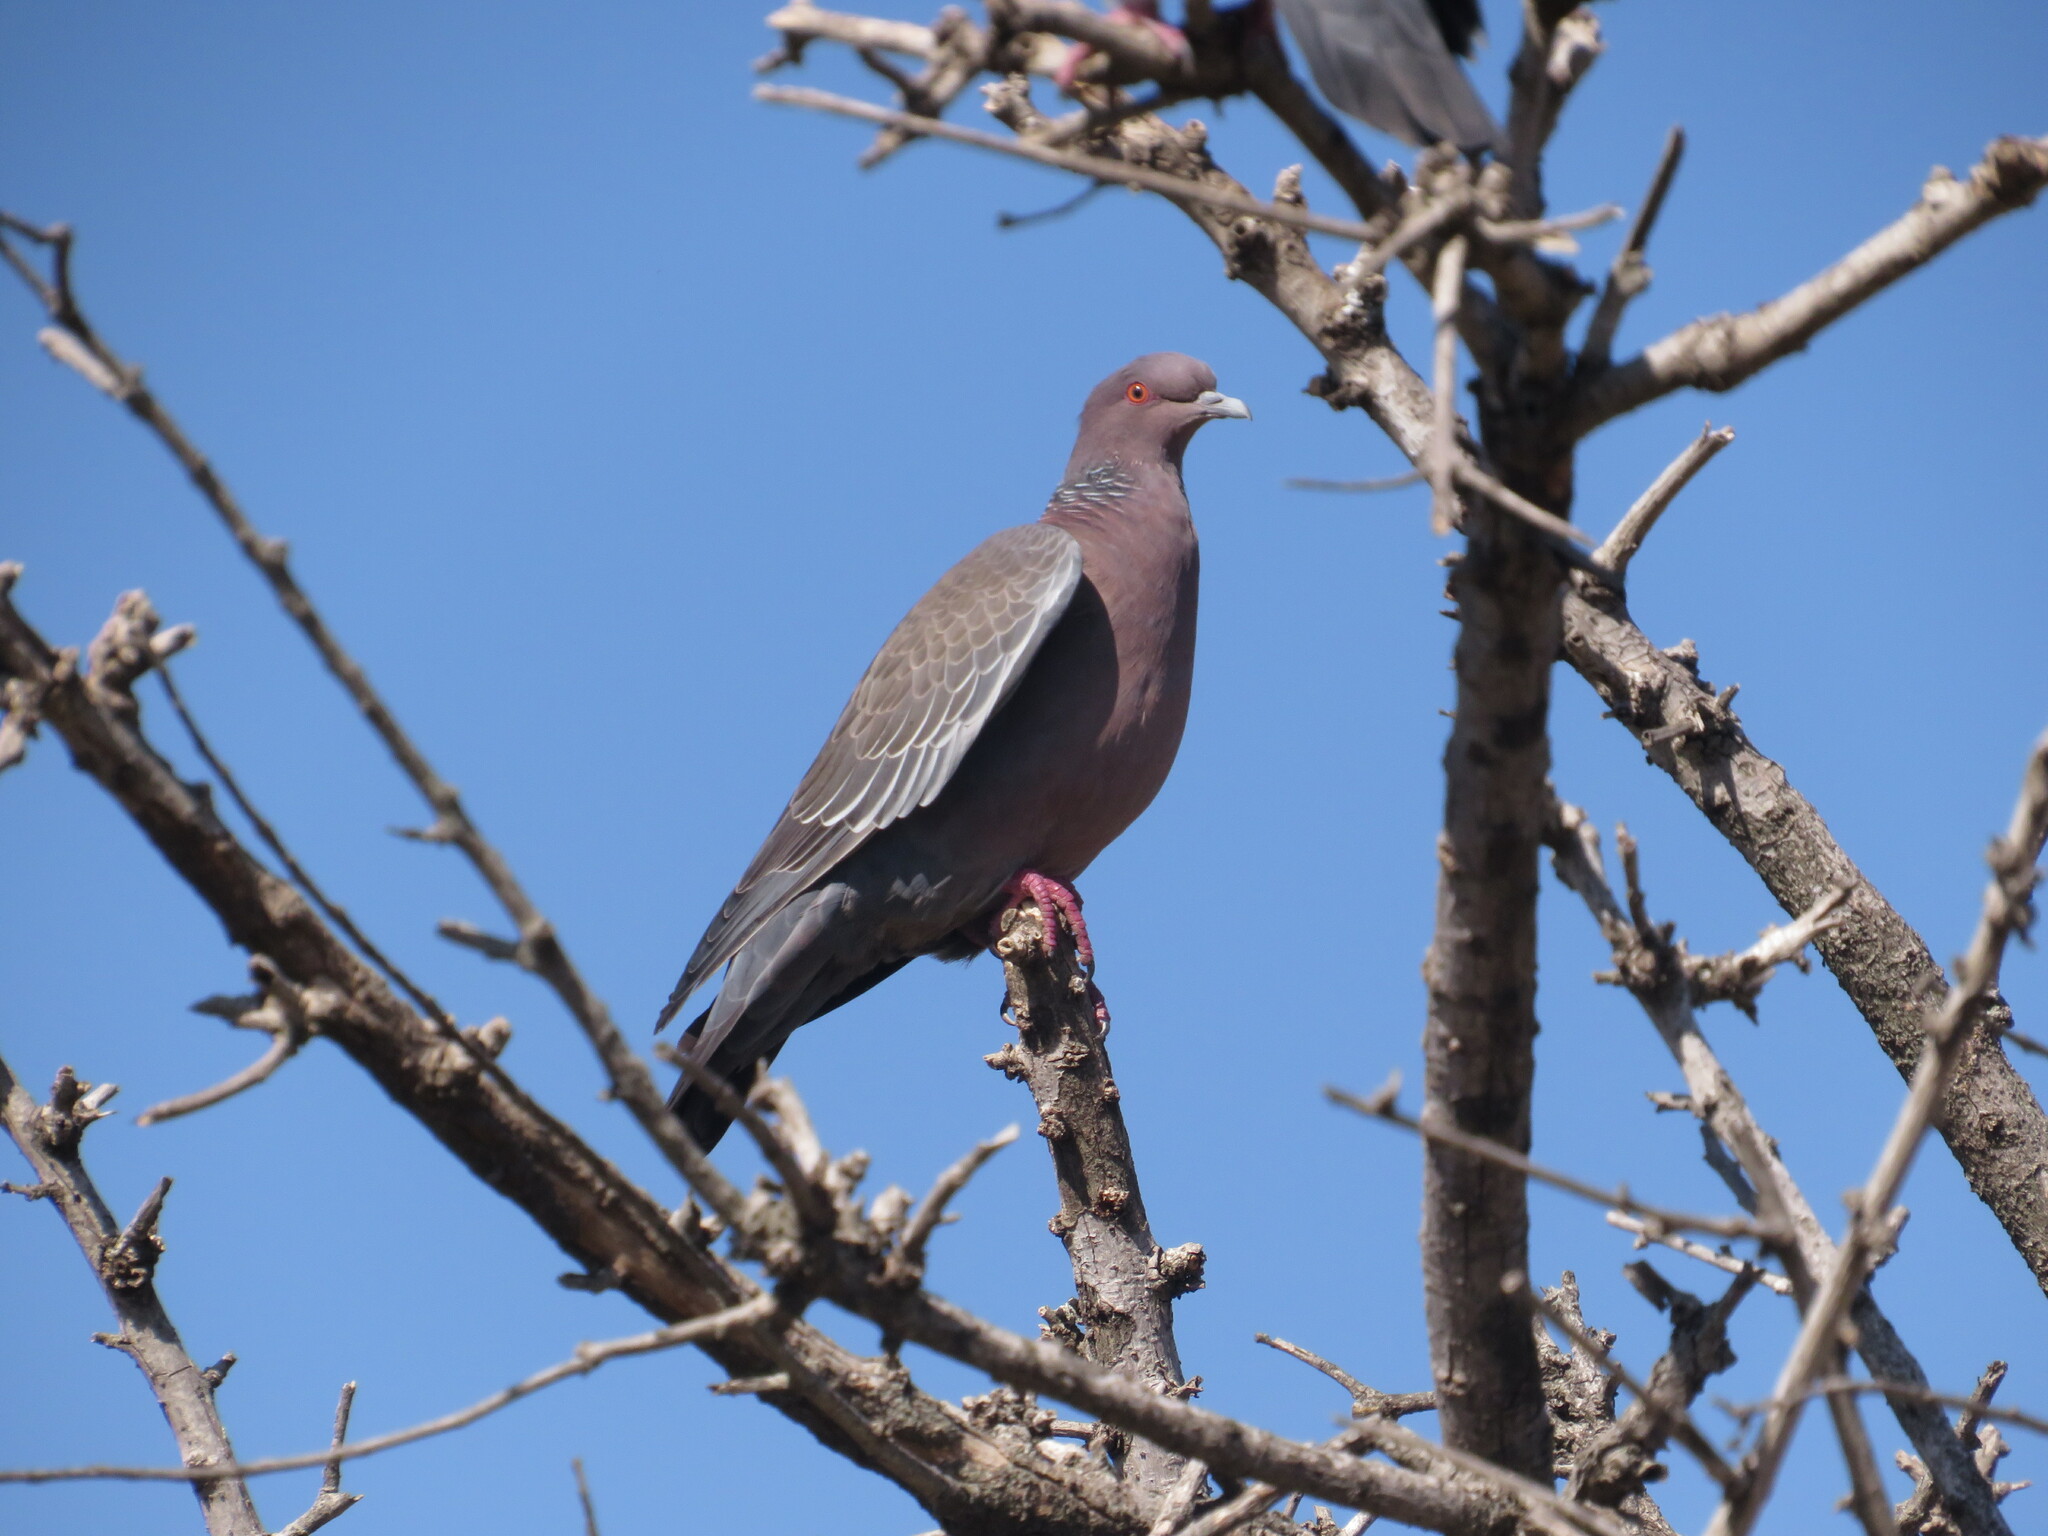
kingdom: Animalia
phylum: Chordata
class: Aves
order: Columbiformes
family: Columbidae
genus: Patagioenas
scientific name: Patagioenas picazuro
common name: Picazuro pigeon
